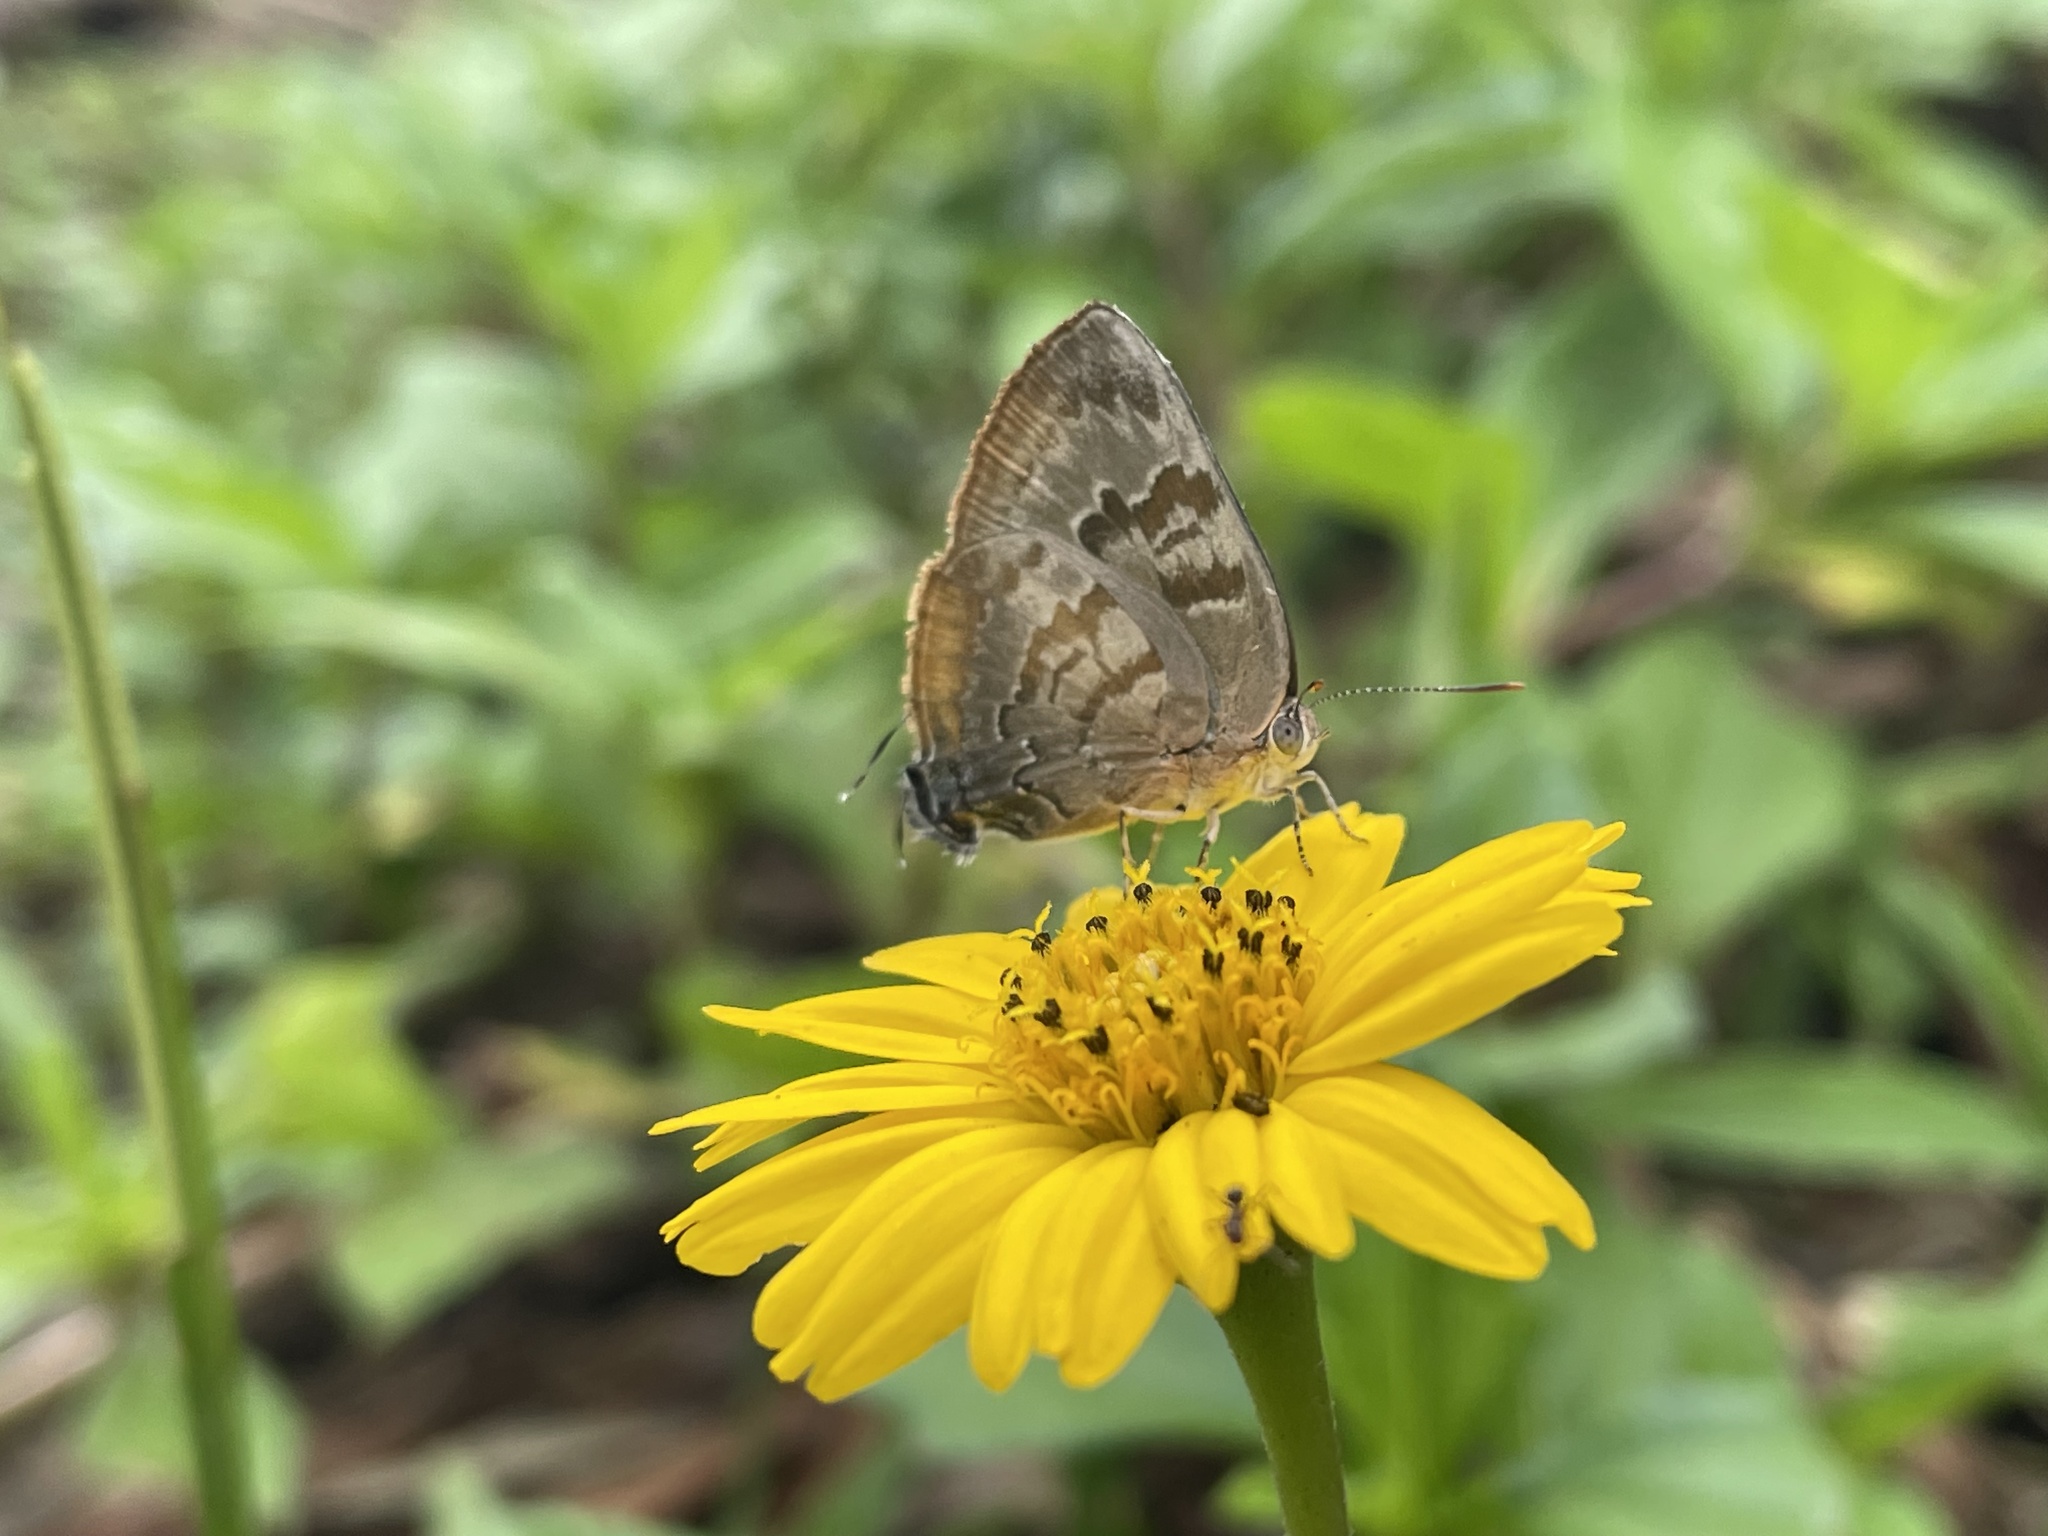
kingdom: Animalia
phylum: Arthropoda
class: Insecta
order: Lepidoptera
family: Lycaenidae
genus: Rekoa
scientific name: Rekoa palegon
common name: Gold-bordered hairstreak
